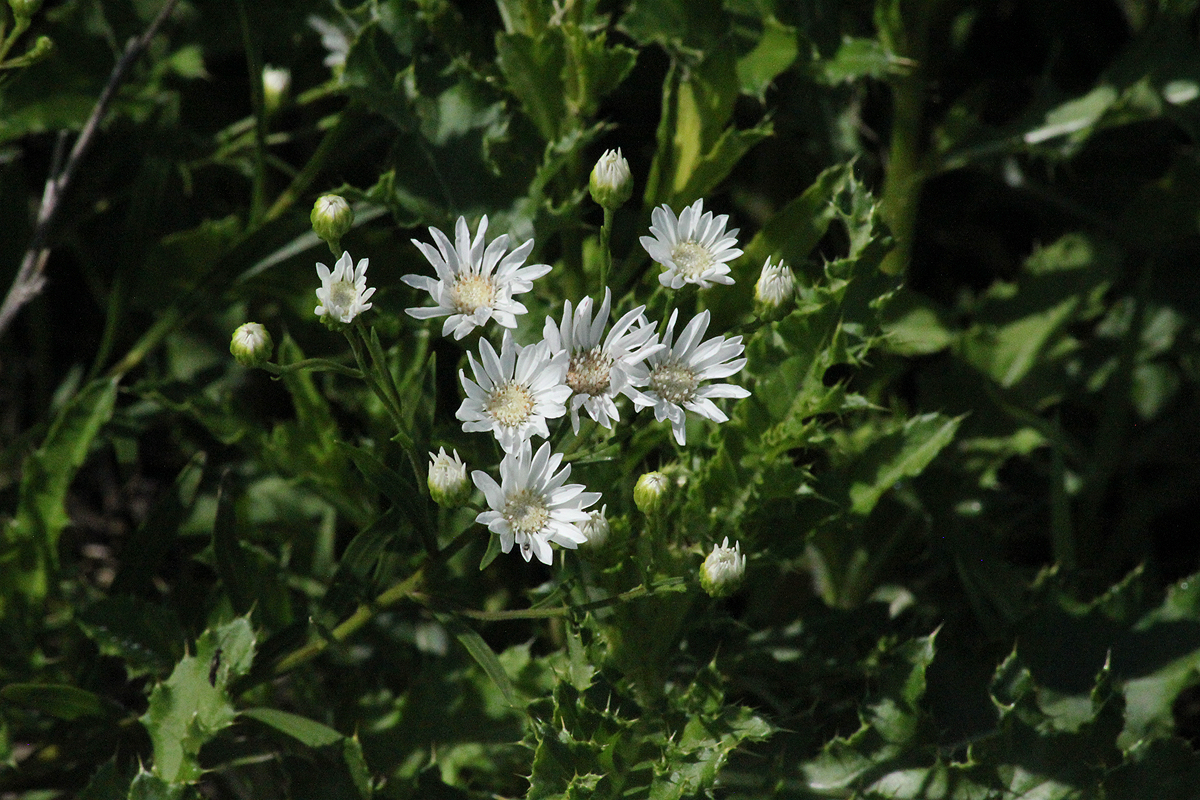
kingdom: Plantae
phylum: Tracheophyta
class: Magnoliopsida
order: Asterales
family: Asteraceae
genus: Solidago
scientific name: Solidago ptarmicoides
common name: White flat-top goldenrod
